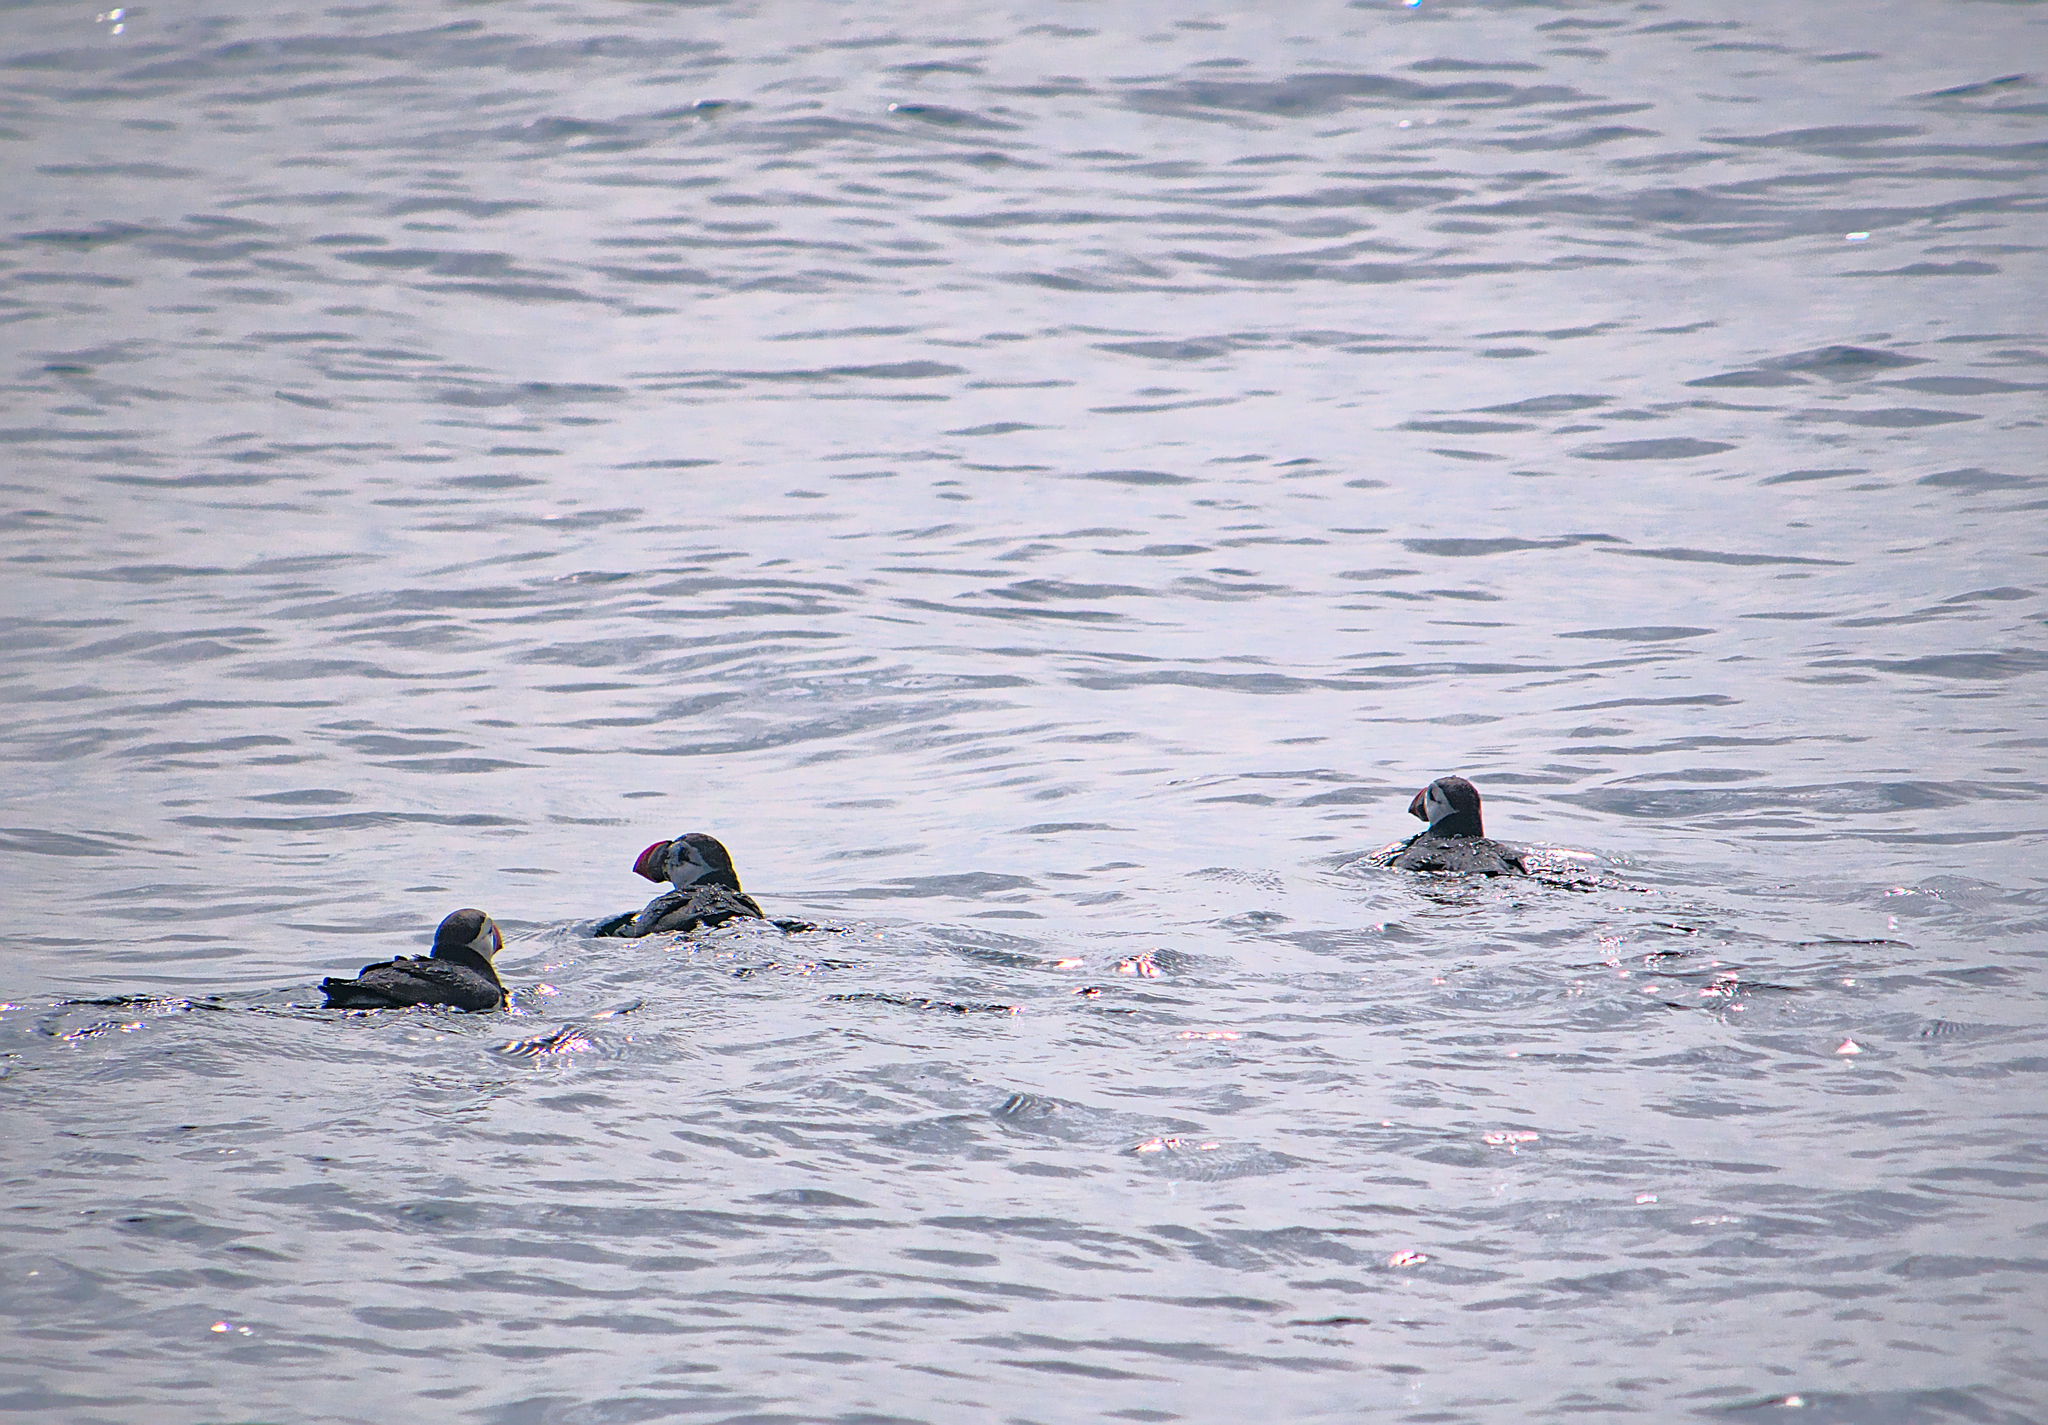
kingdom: Animalia
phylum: Chordata
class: Aves
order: Charadriiformes
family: Alcidae
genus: Fratercula
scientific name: Fratercula arctica
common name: Atlantic puffin
